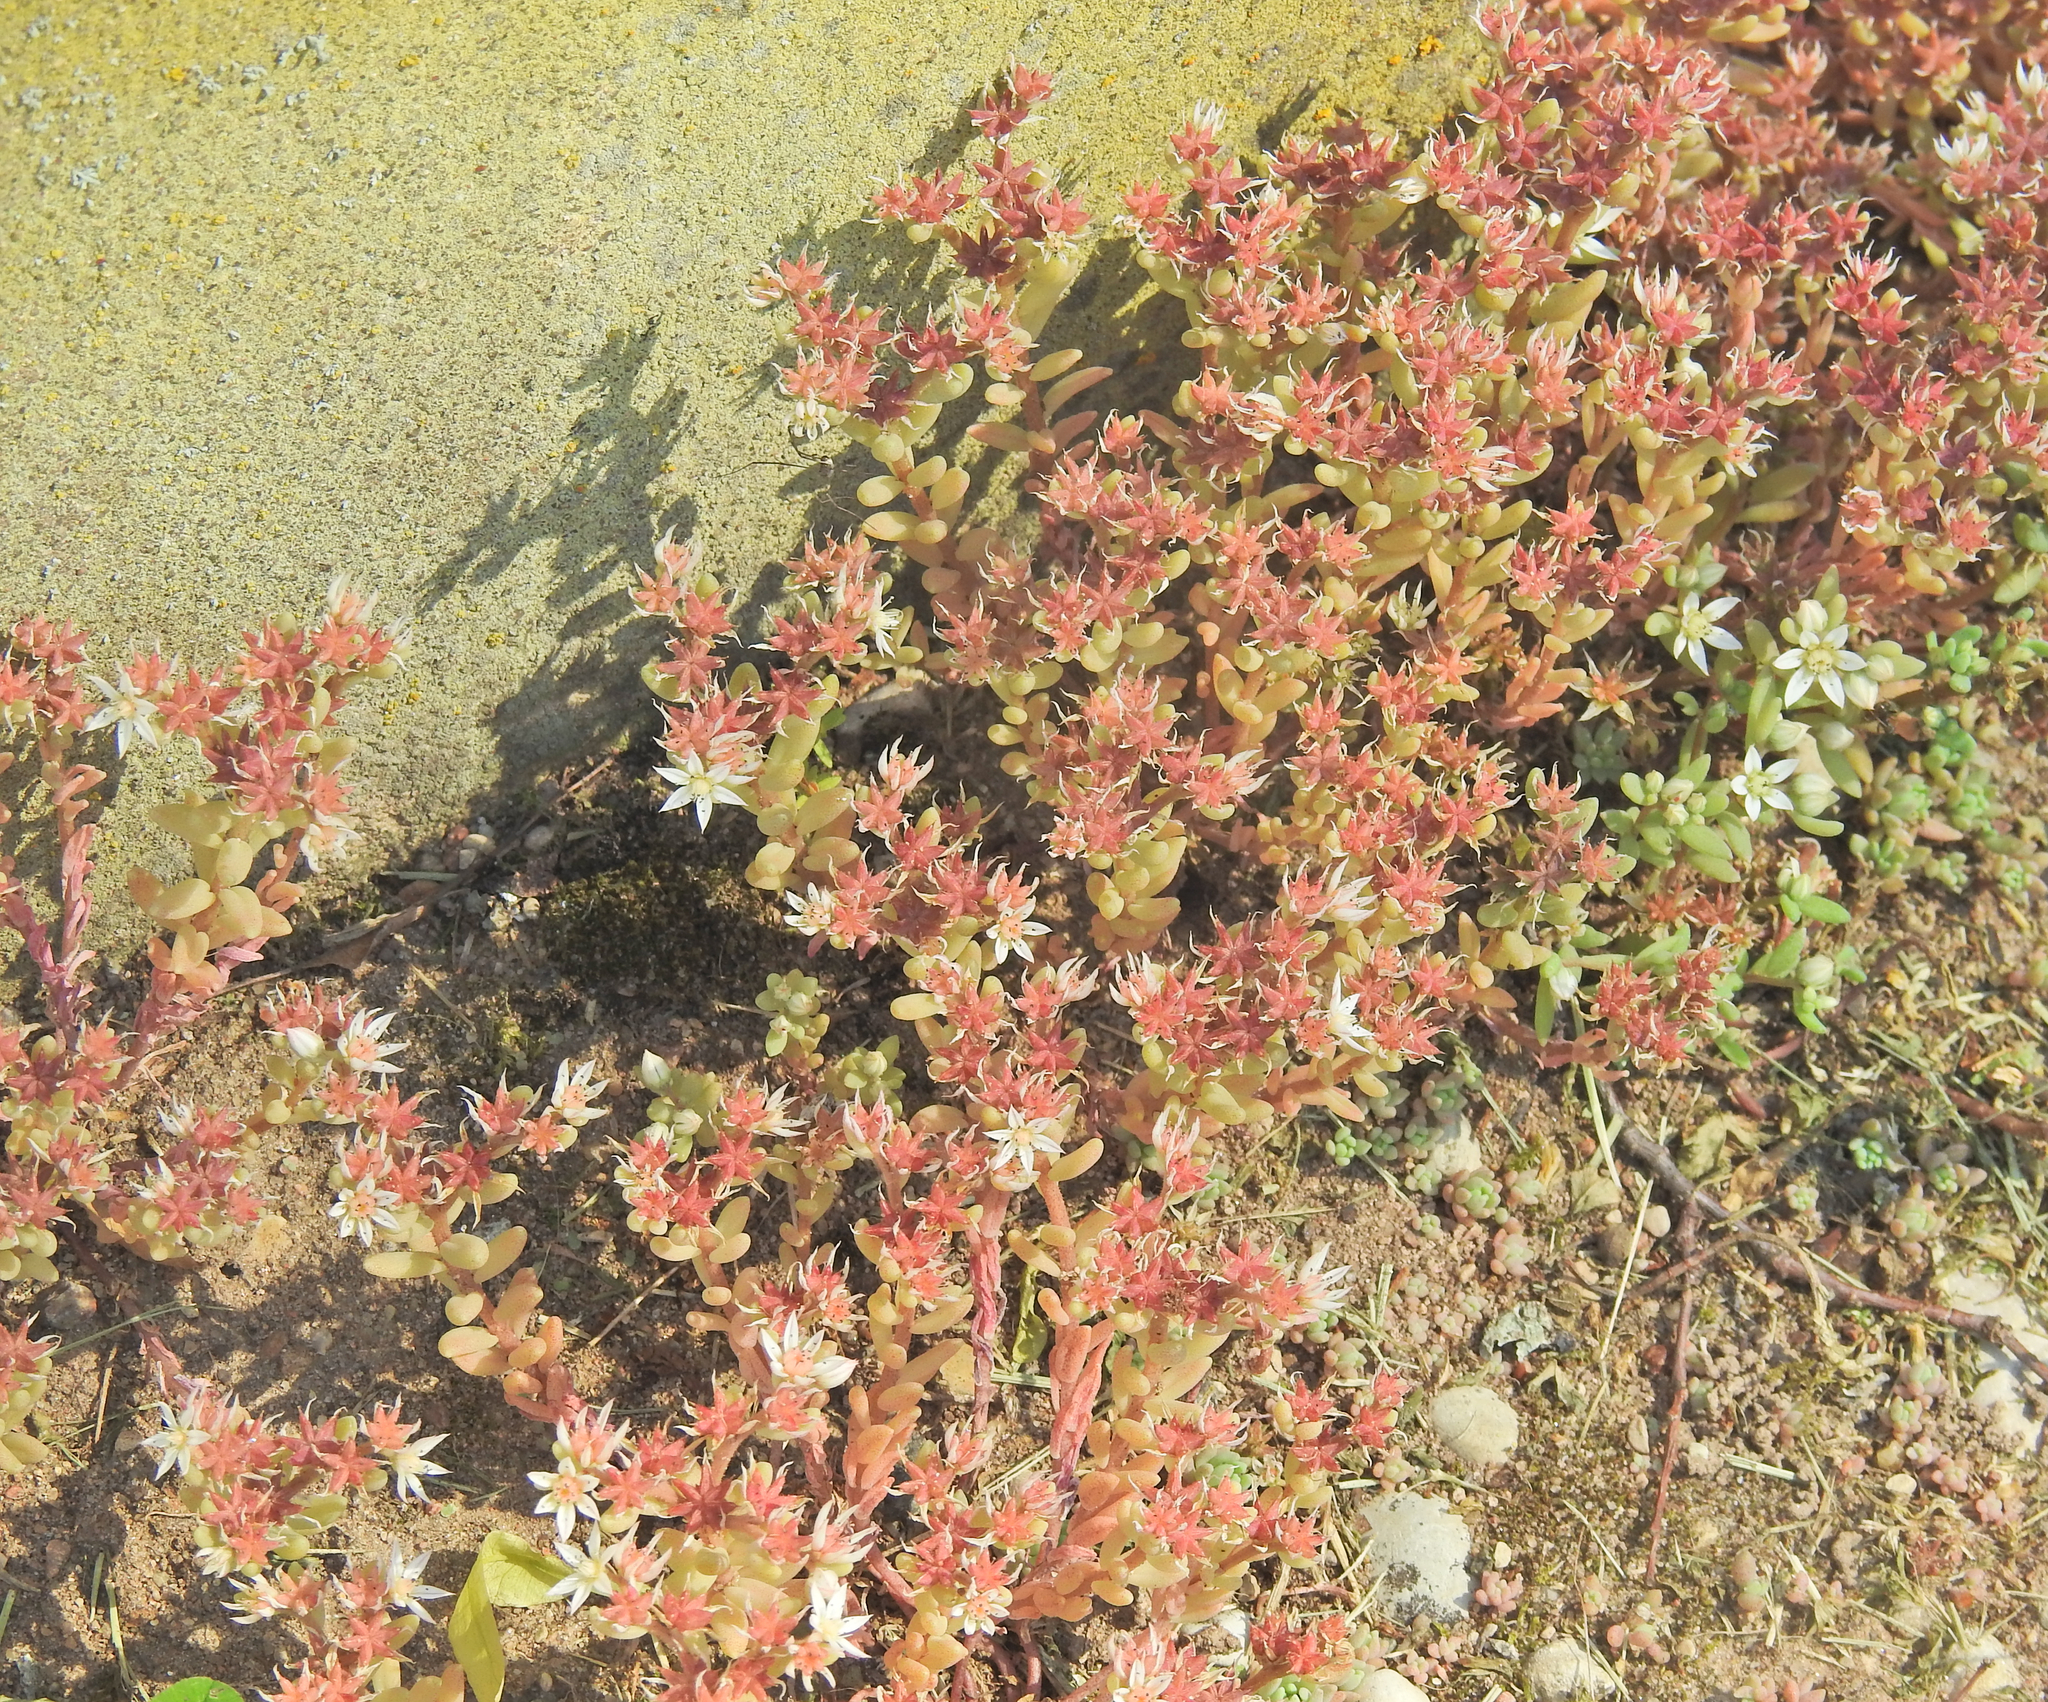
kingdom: Plantae
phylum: Tracheophyta
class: Magnoliopsida
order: Saxifragales
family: Crassulaceae
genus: Sedum
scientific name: Sedum hispanicum
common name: Spanish stonecrop
